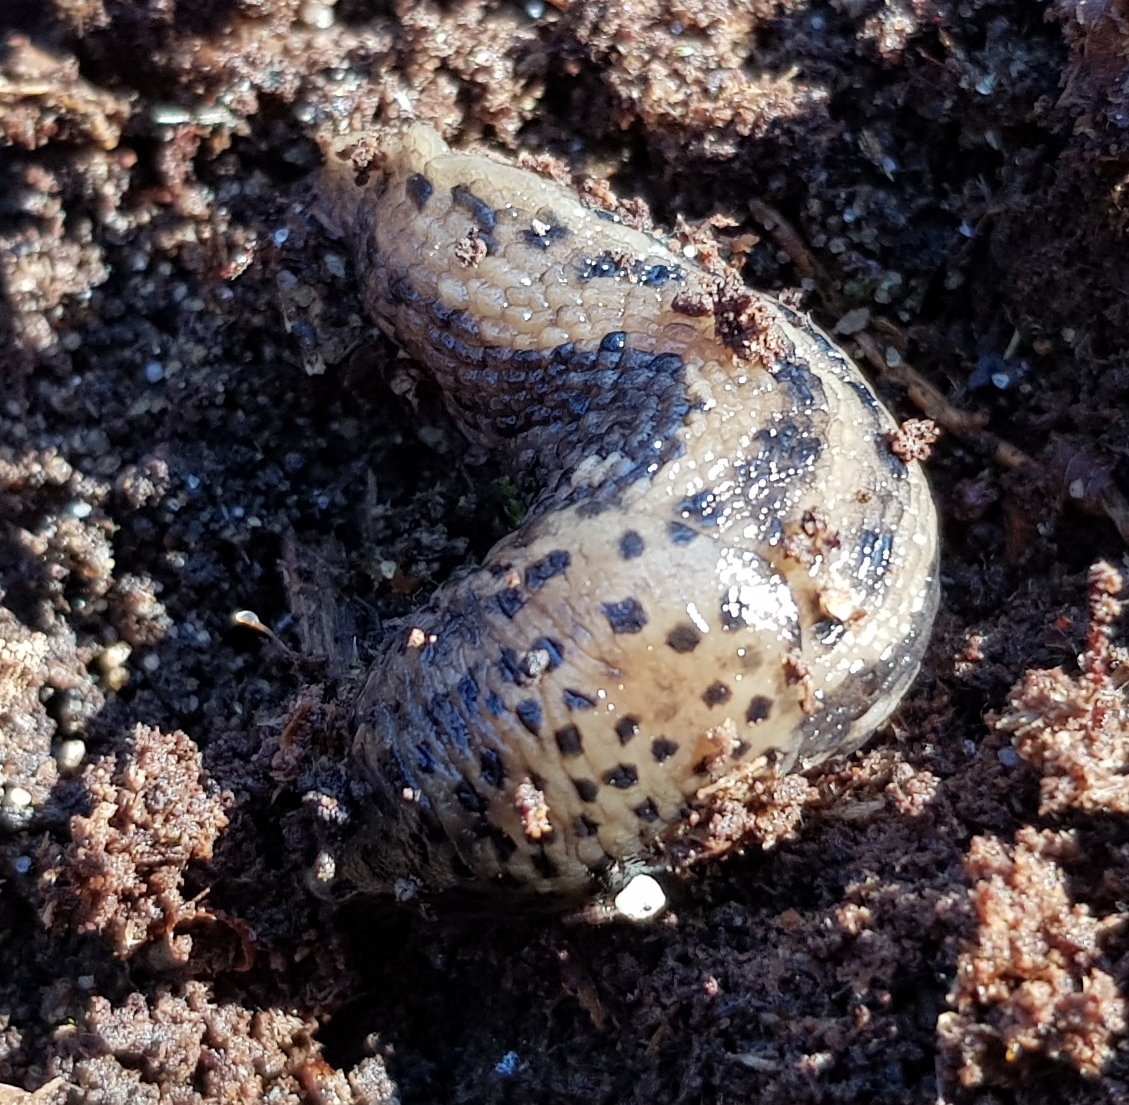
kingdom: Animalia
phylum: Mollusca
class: Gastropoda
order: Stylommatophora
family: Limacidae
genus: Limax
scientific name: Limax maximus
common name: Great grey slug
